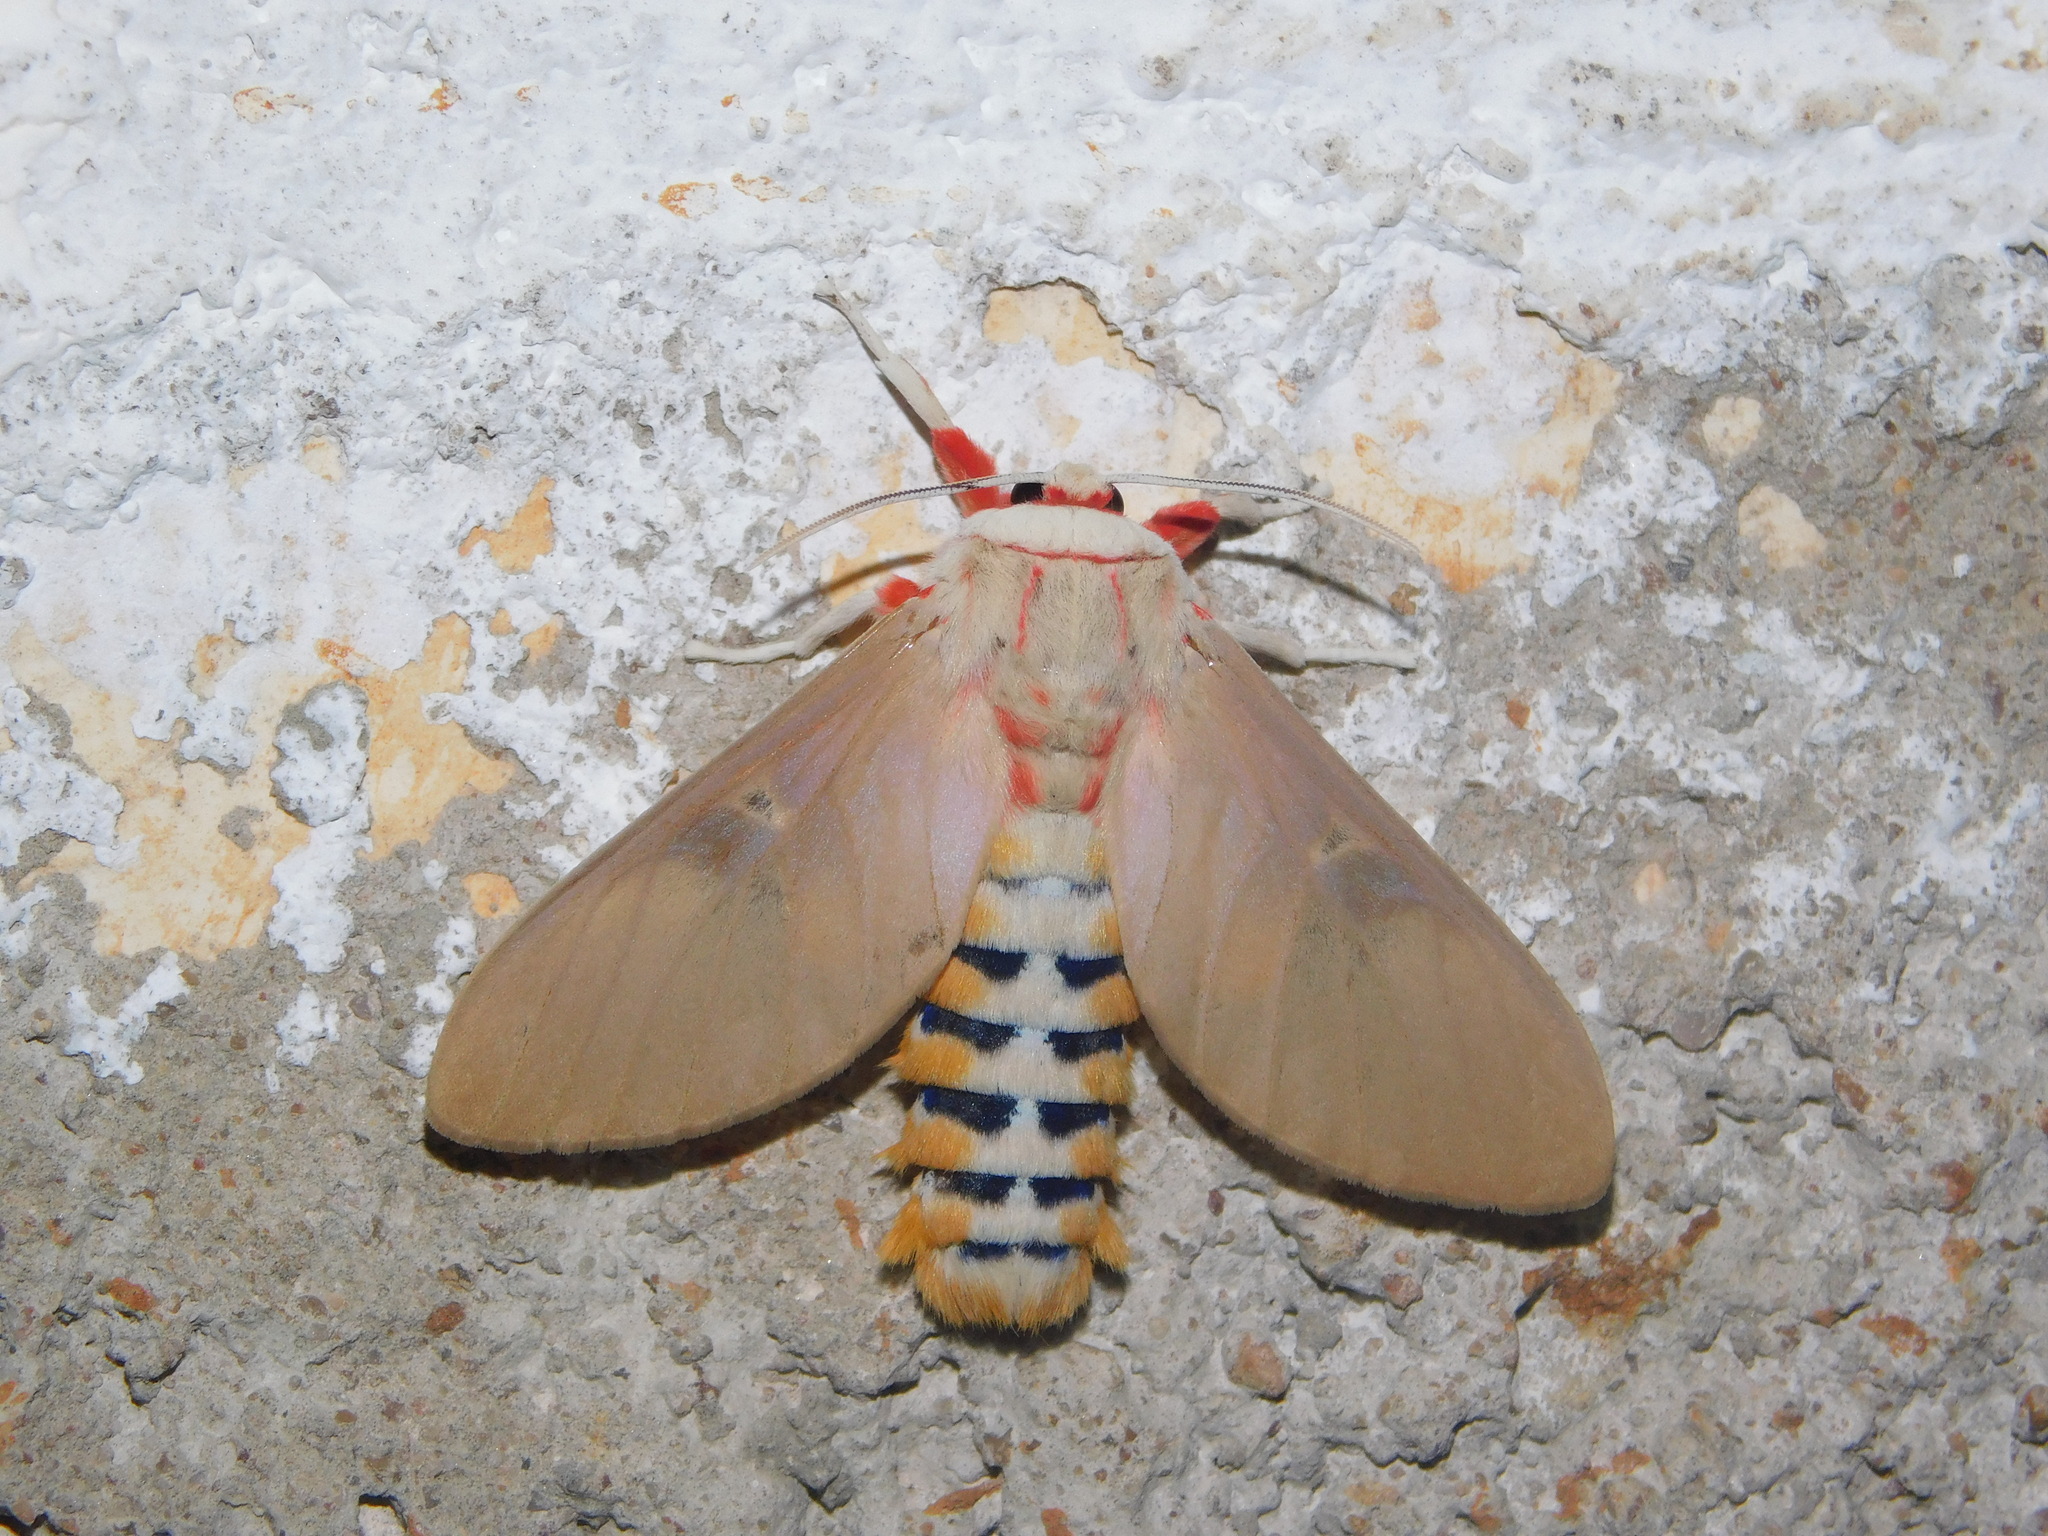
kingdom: Animalia
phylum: Arthropoda
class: Insecta
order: Lepidoptera
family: Erebidae
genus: Balacra
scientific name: Balacra herona
